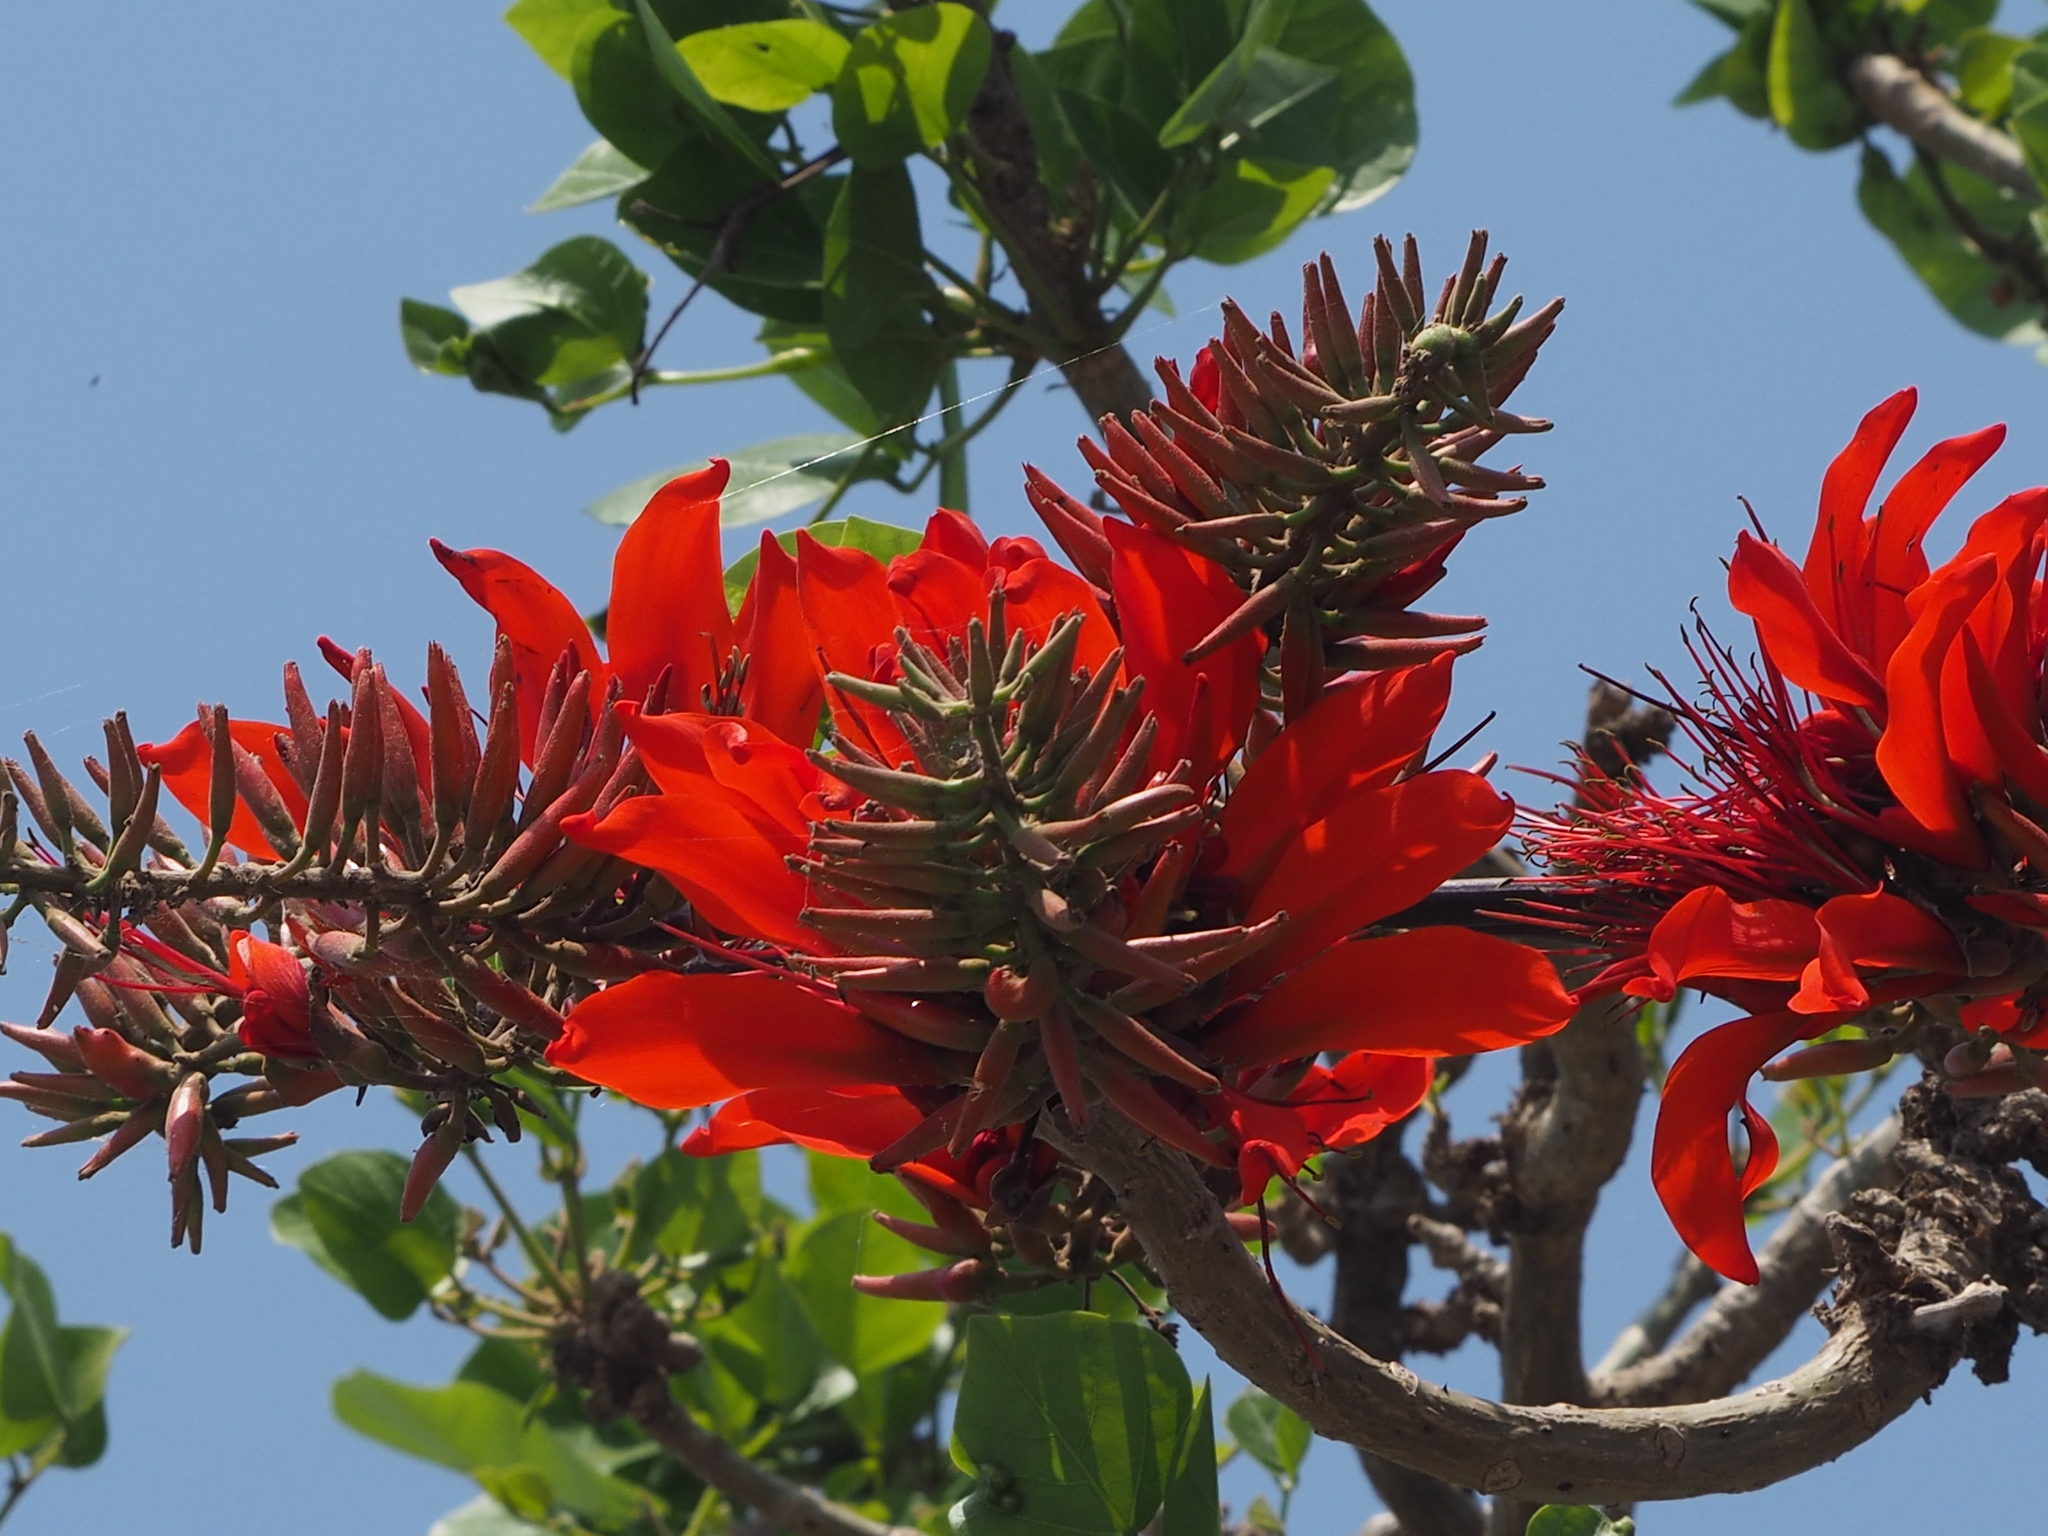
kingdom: Plantae
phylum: Tracheophyta
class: Magnoliopsida
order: Fabales
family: Fabaceae
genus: Erythrina
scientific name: Erythrina variegata
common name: Indian coral tree
